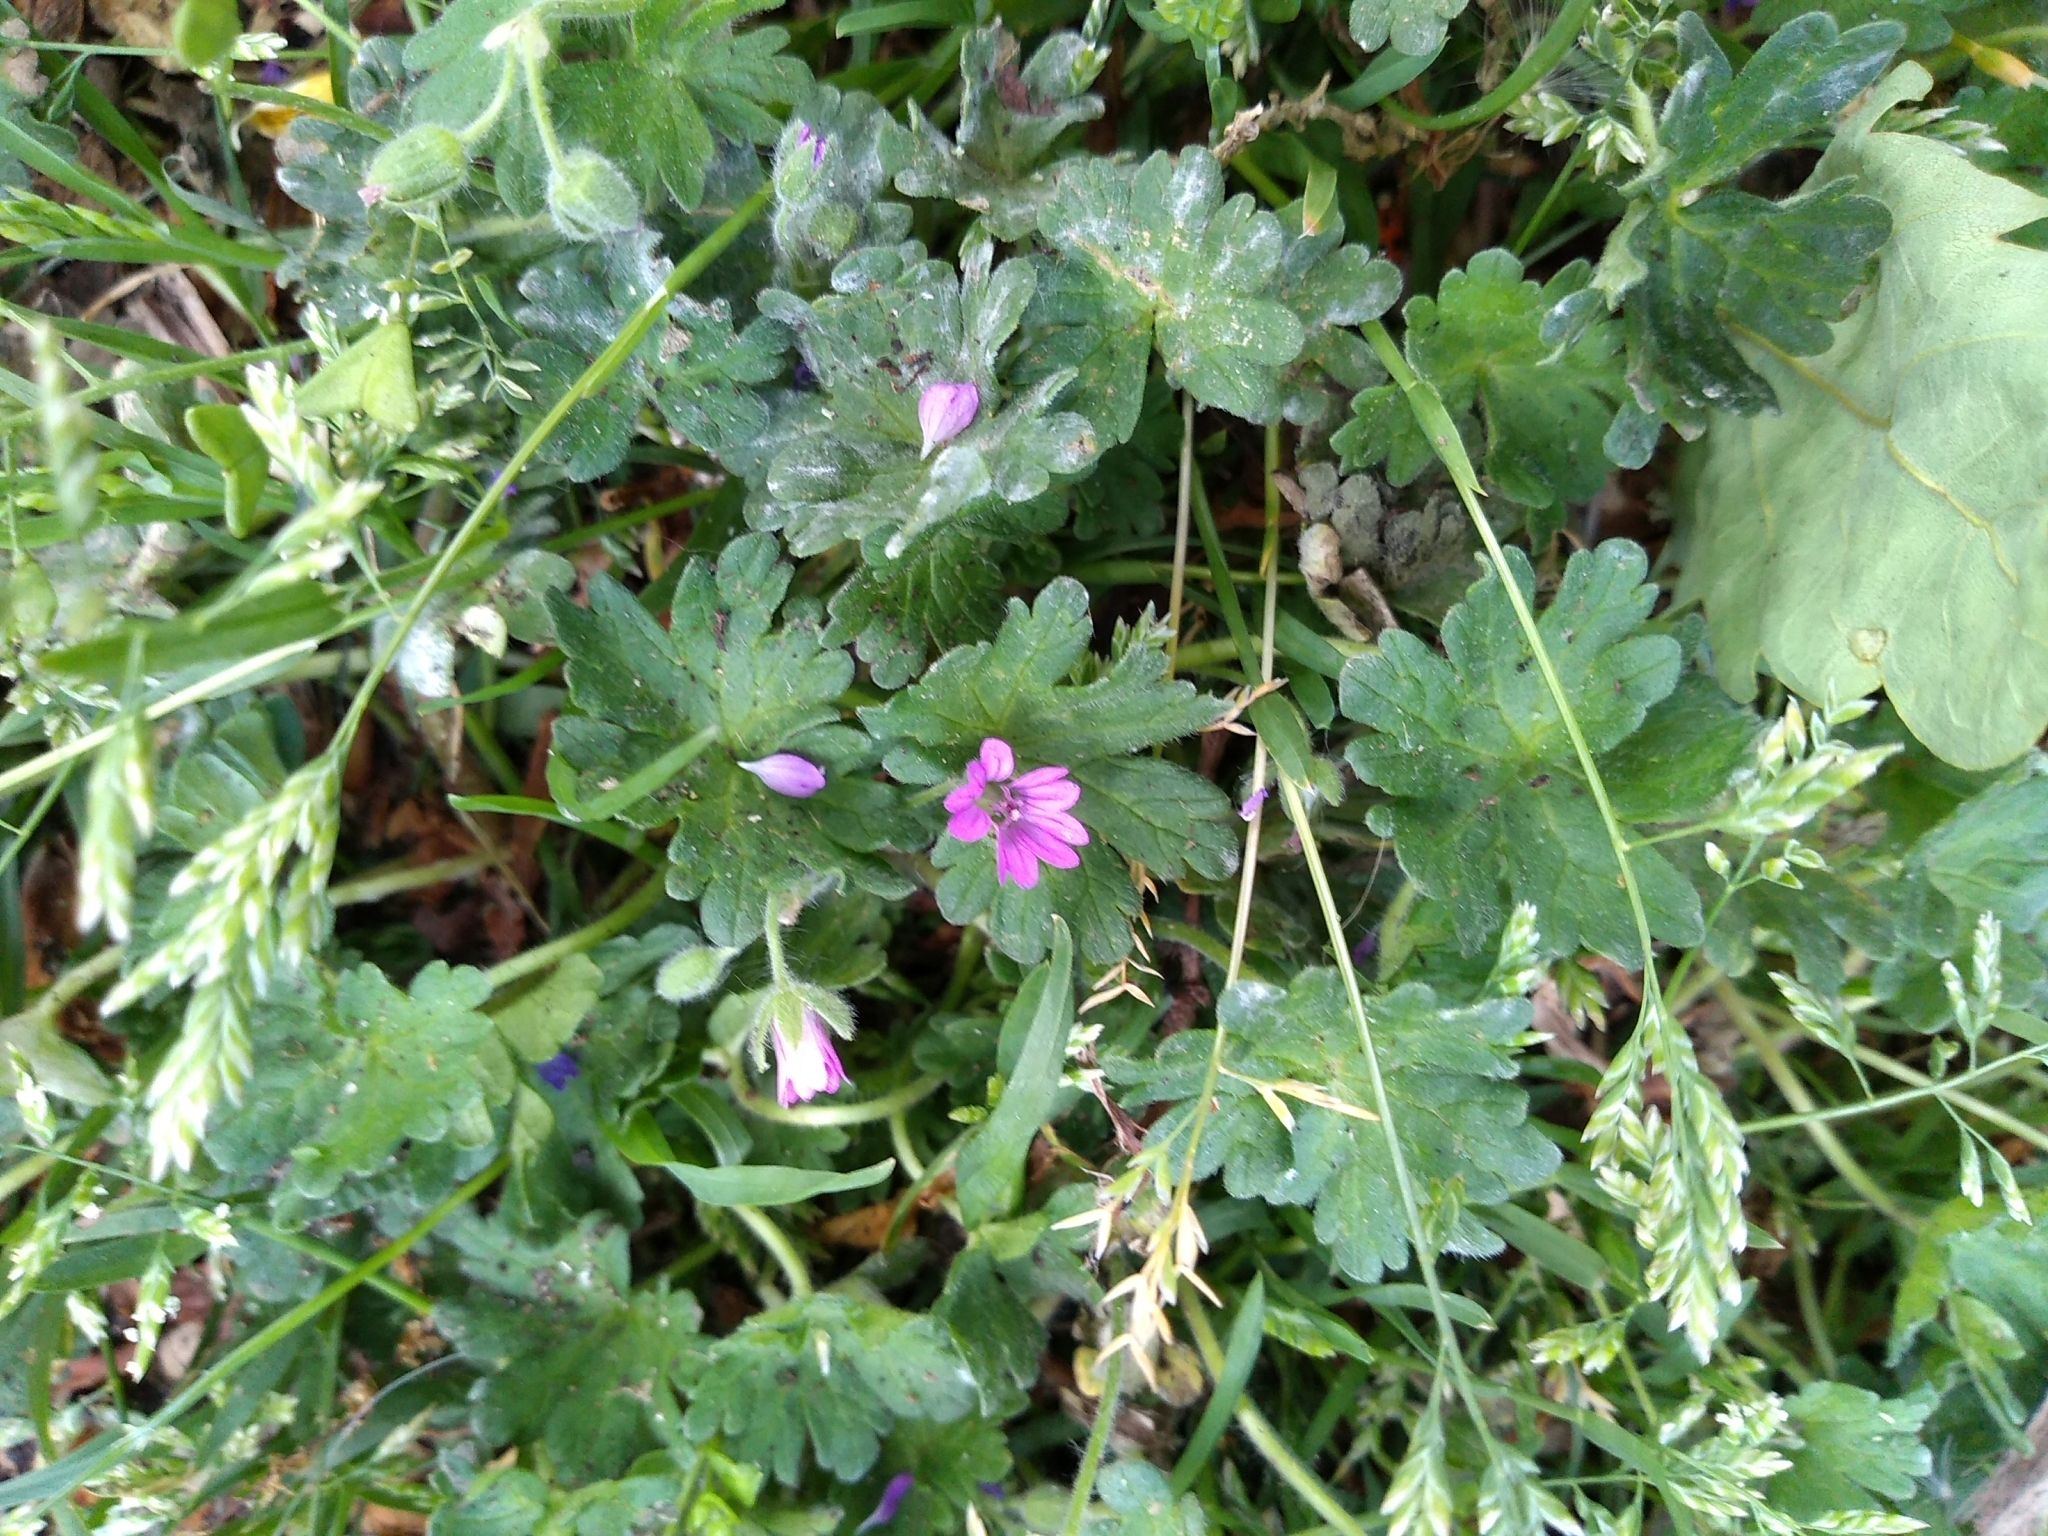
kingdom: Plantae
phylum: Tracheophyta
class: Magnoliopsida
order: Geraniales
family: Geraniaceae
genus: Geranium
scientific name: Geranium molle
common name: Dove's-foot crane's-bill
